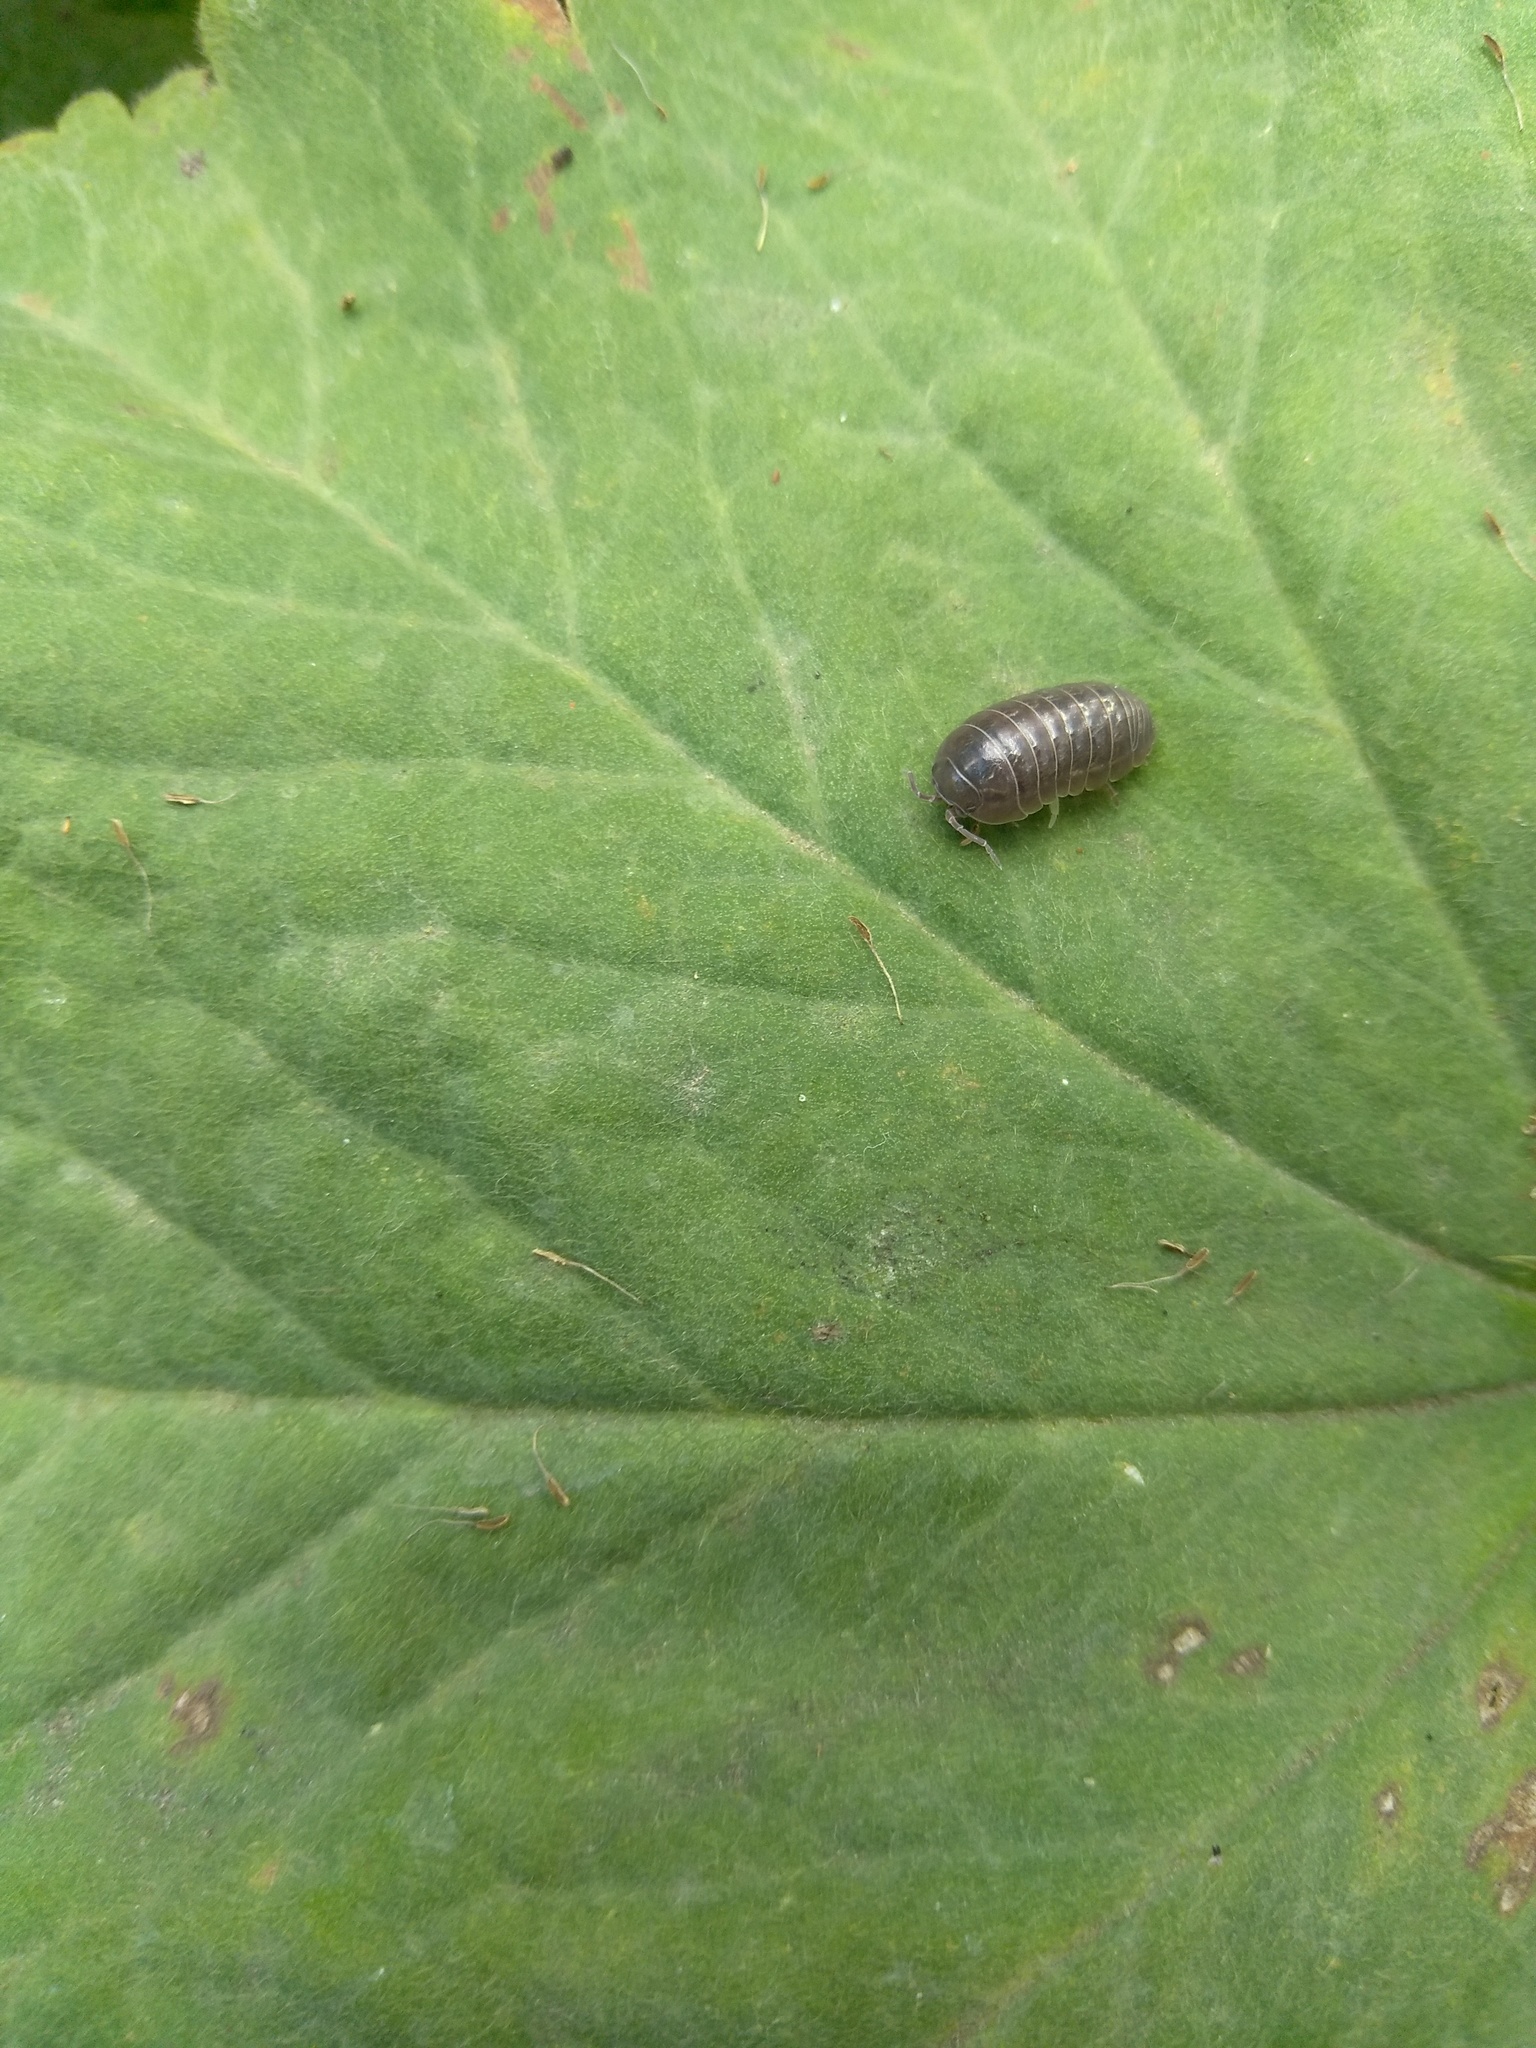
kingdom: Animalia
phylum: Arthropoda
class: Malacostraca
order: Isopoda
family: Armadillidiidae
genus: Armadillidium
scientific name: Armadillidium vulgare
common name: Common pill woodlouse
